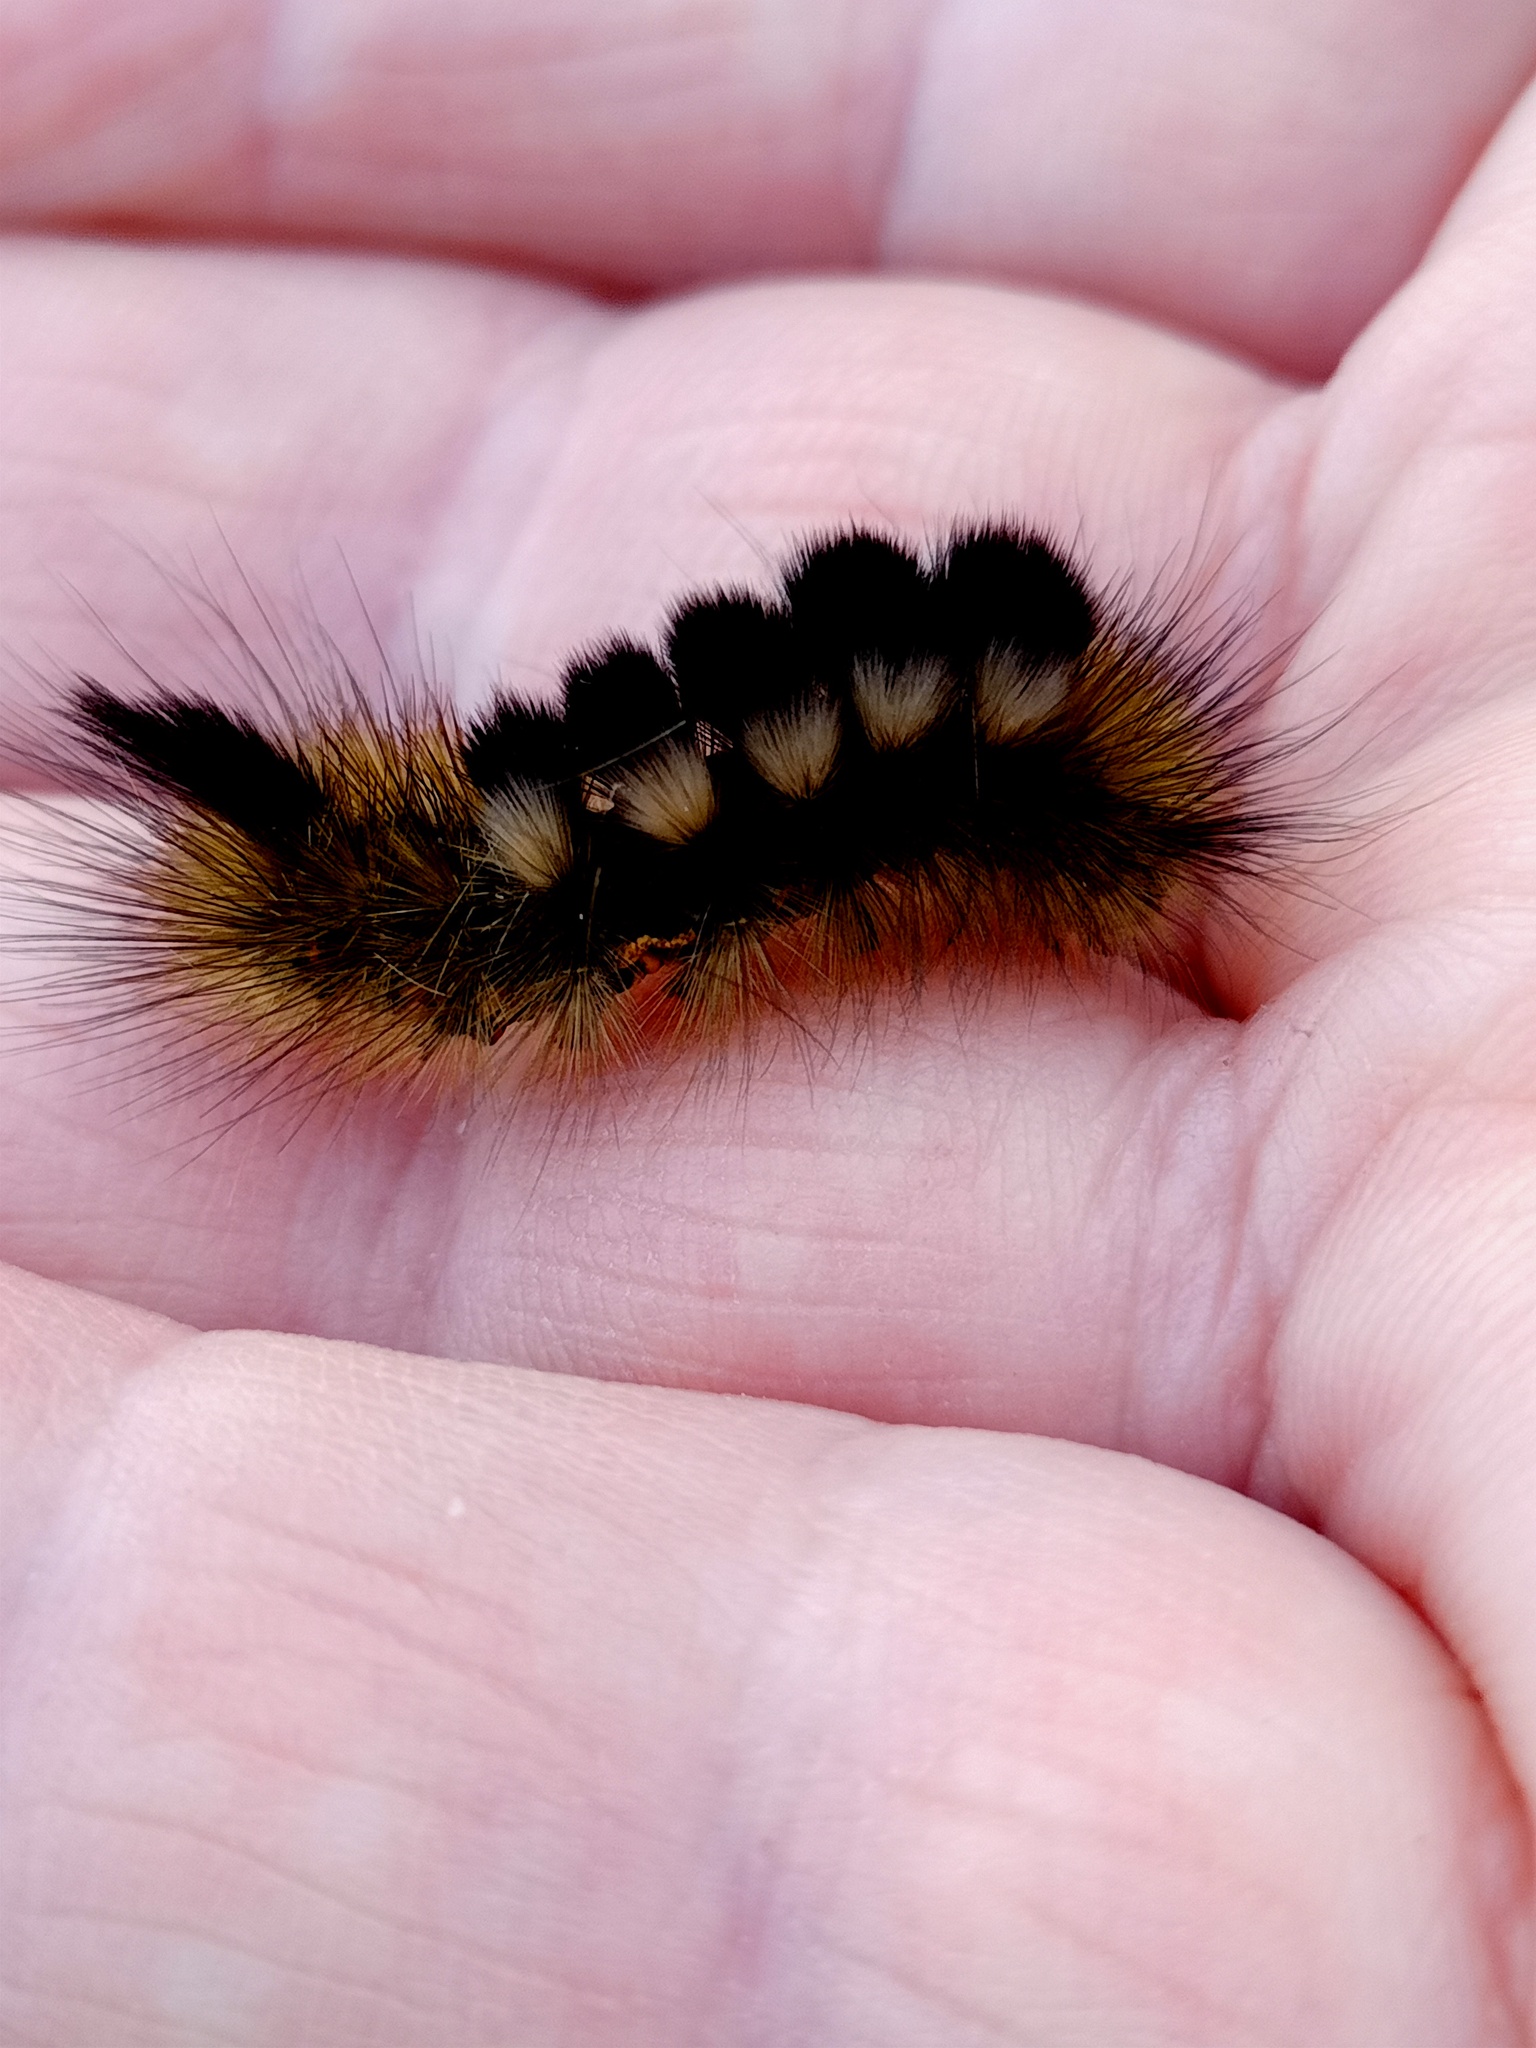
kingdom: Animalia
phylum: Arthropoda
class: Insecta
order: Lepidoptera
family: Erebidae
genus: Calliteara
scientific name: Calliteara Dicallomera fascelina
